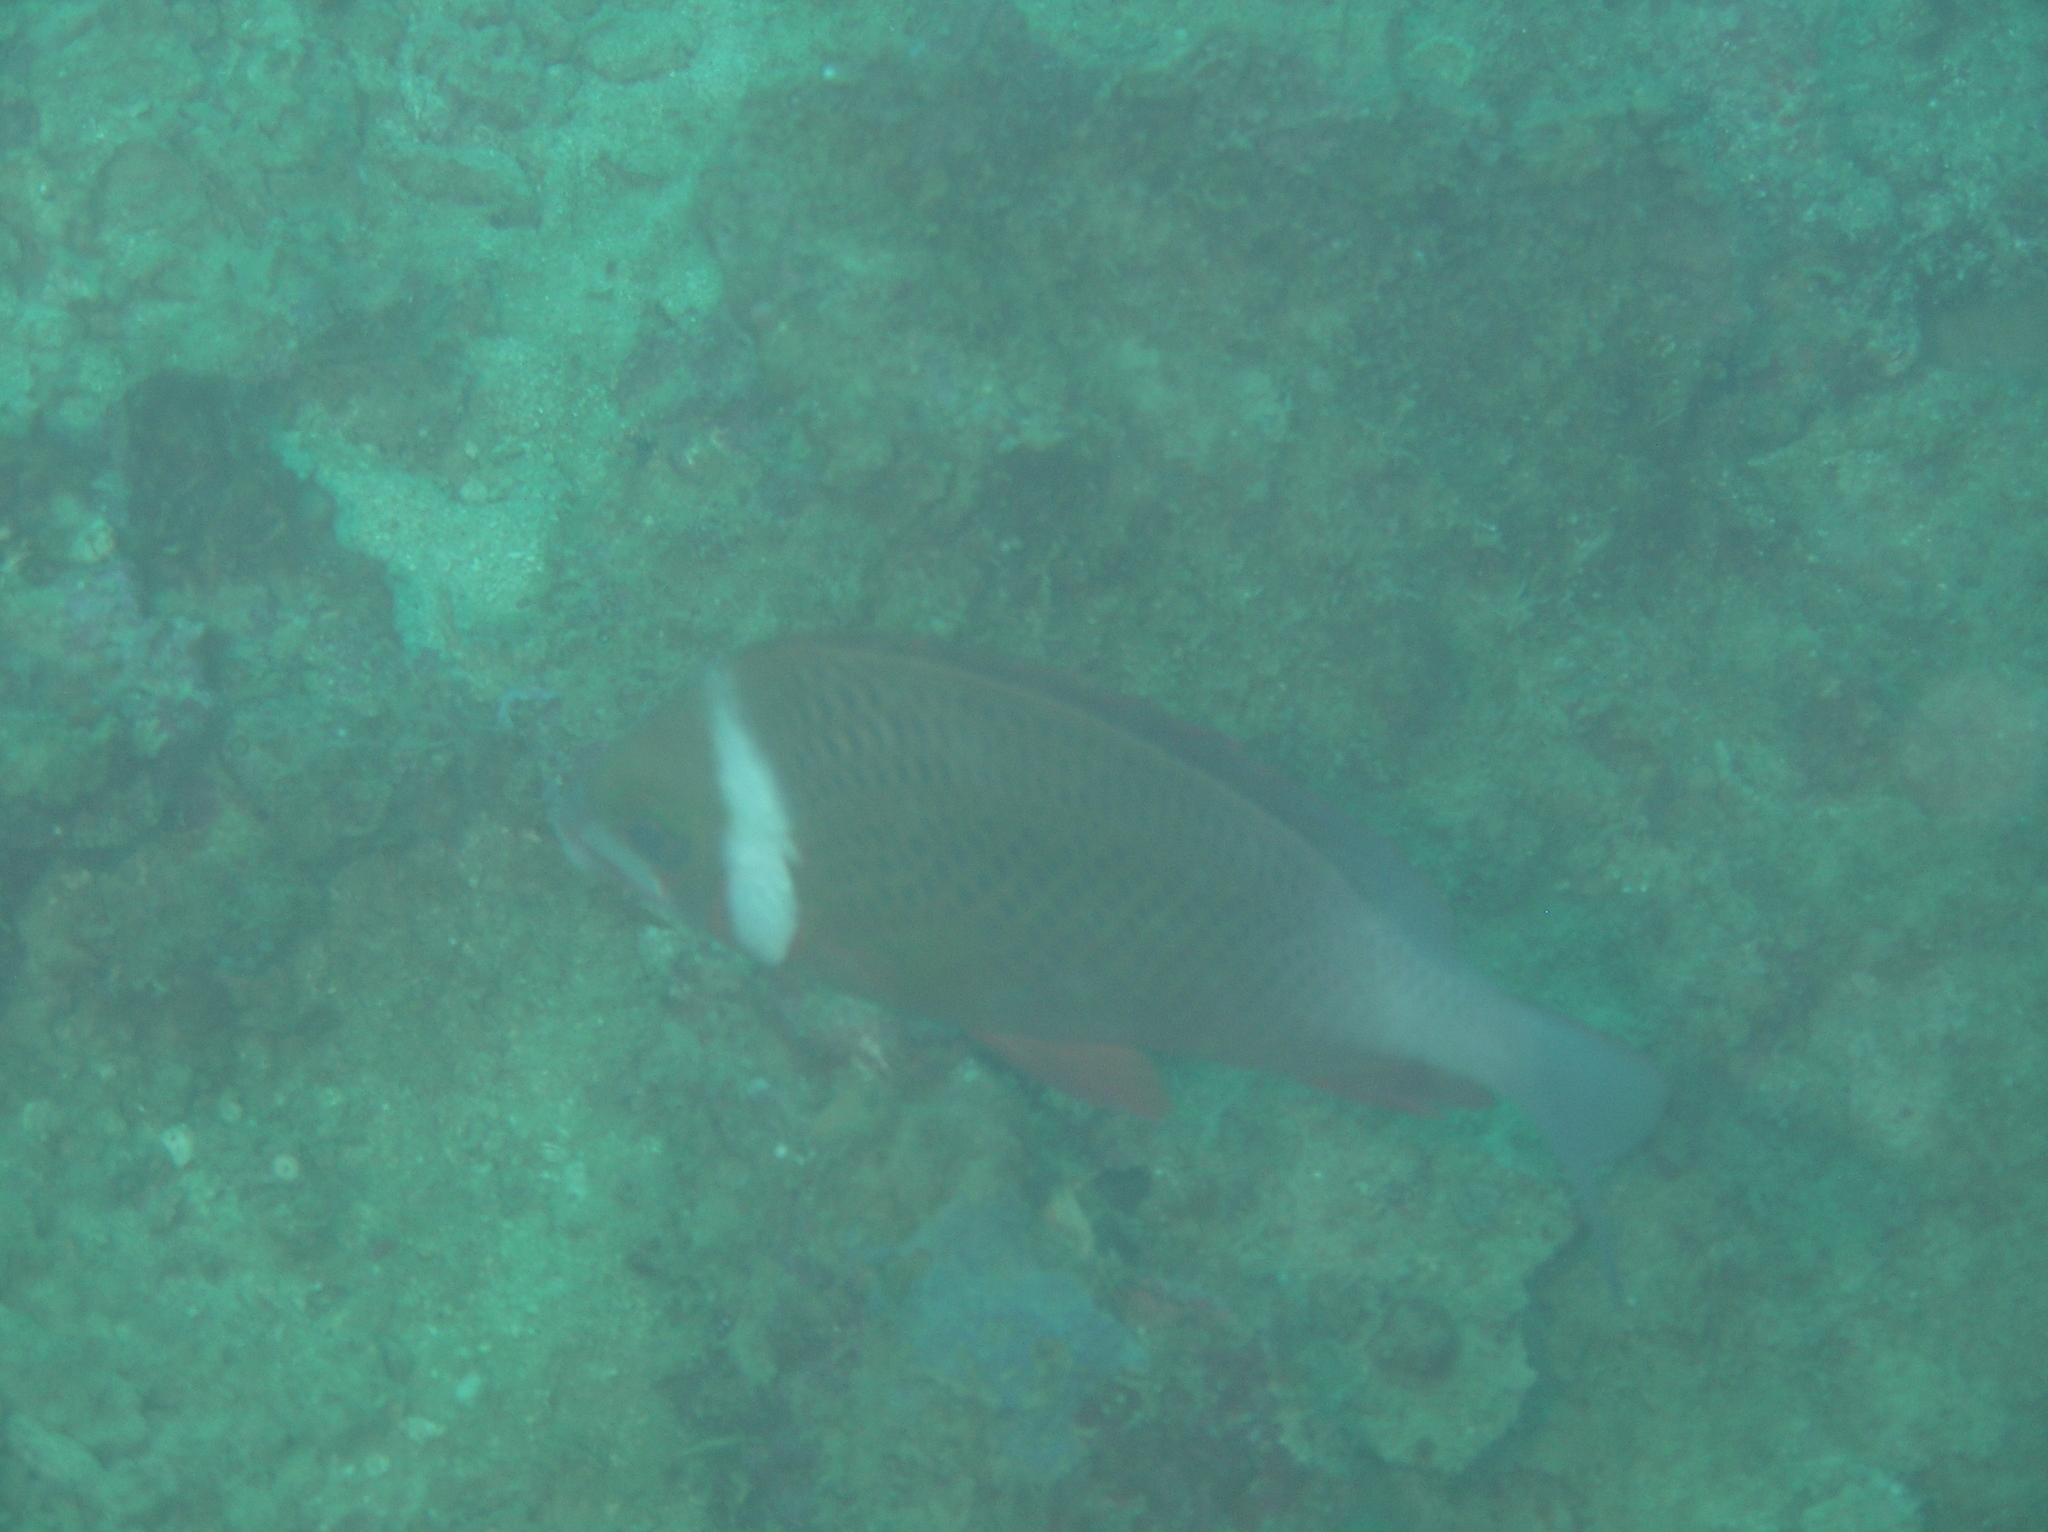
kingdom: Animalia
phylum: Chordata
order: Perciformes
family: Nemipteridae
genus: Scolopsis
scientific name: Scolopsis vosmeri
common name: Whitecheek monocle bream
